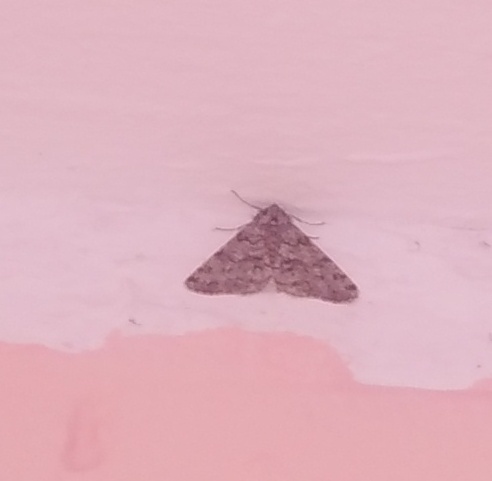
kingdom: Animalia
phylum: Arthropoda
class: Insecta
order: Lepidoptera
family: Geometridae
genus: Phigalia
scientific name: Phigalia pilosaria
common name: Pale brindled beauty
